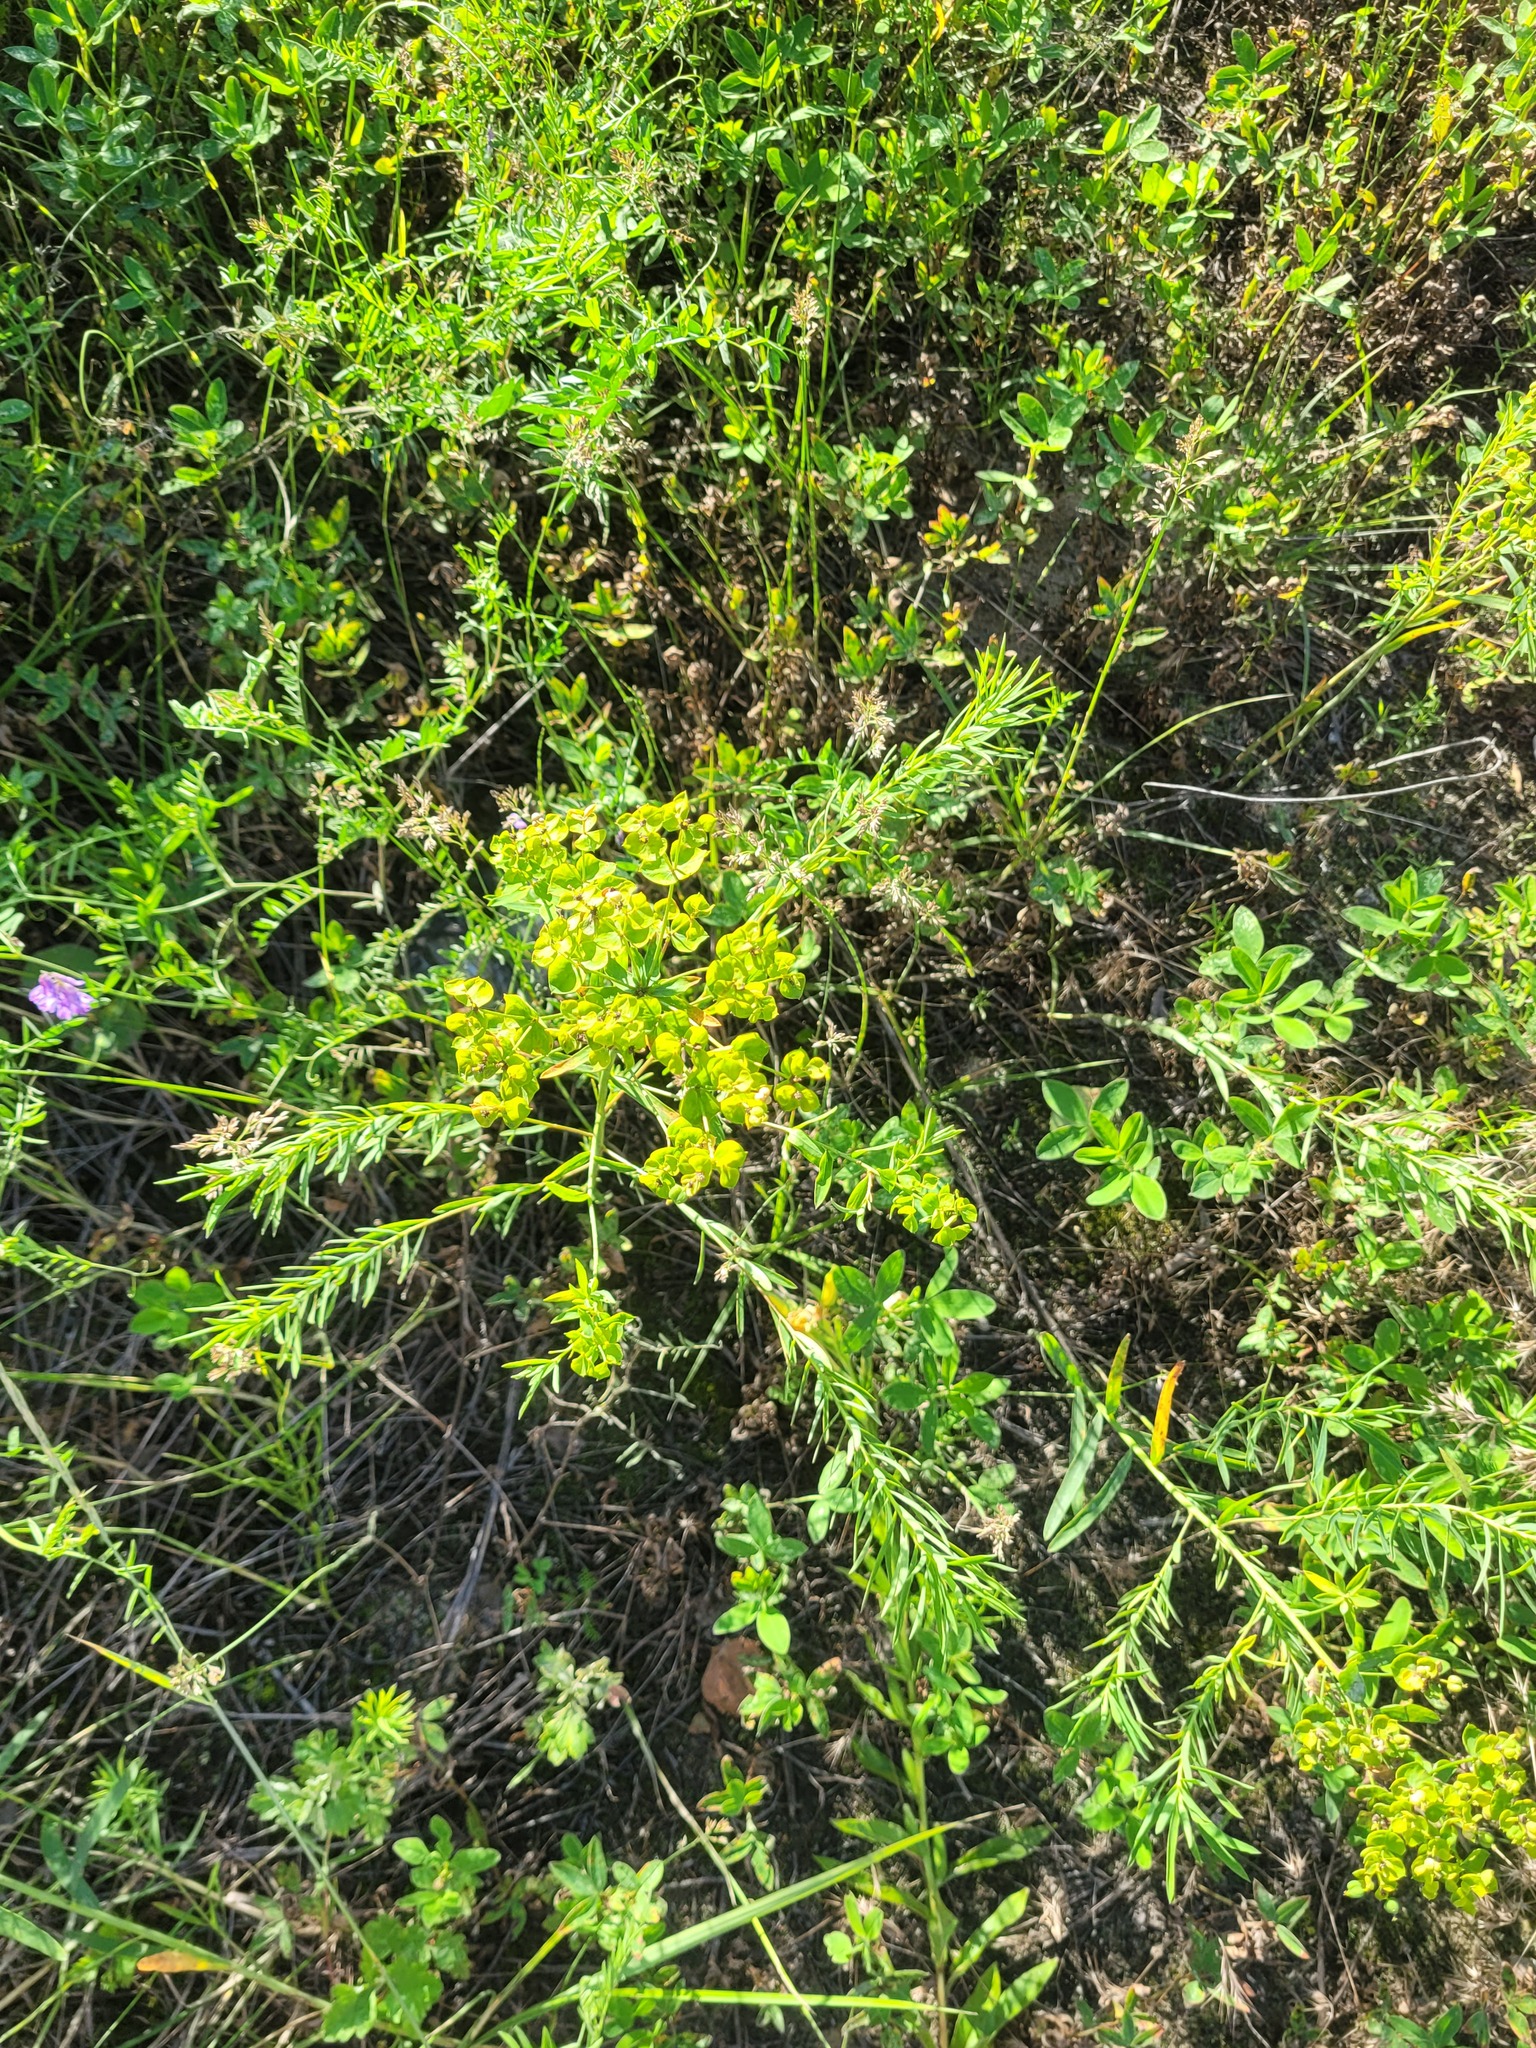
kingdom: Plantae
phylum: Tracheophyta
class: Magnoliopsida
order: Malpighiales
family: Euphorbiaceae
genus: Euphorbia
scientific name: Euphorbia virgata
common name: Leafy spurge
